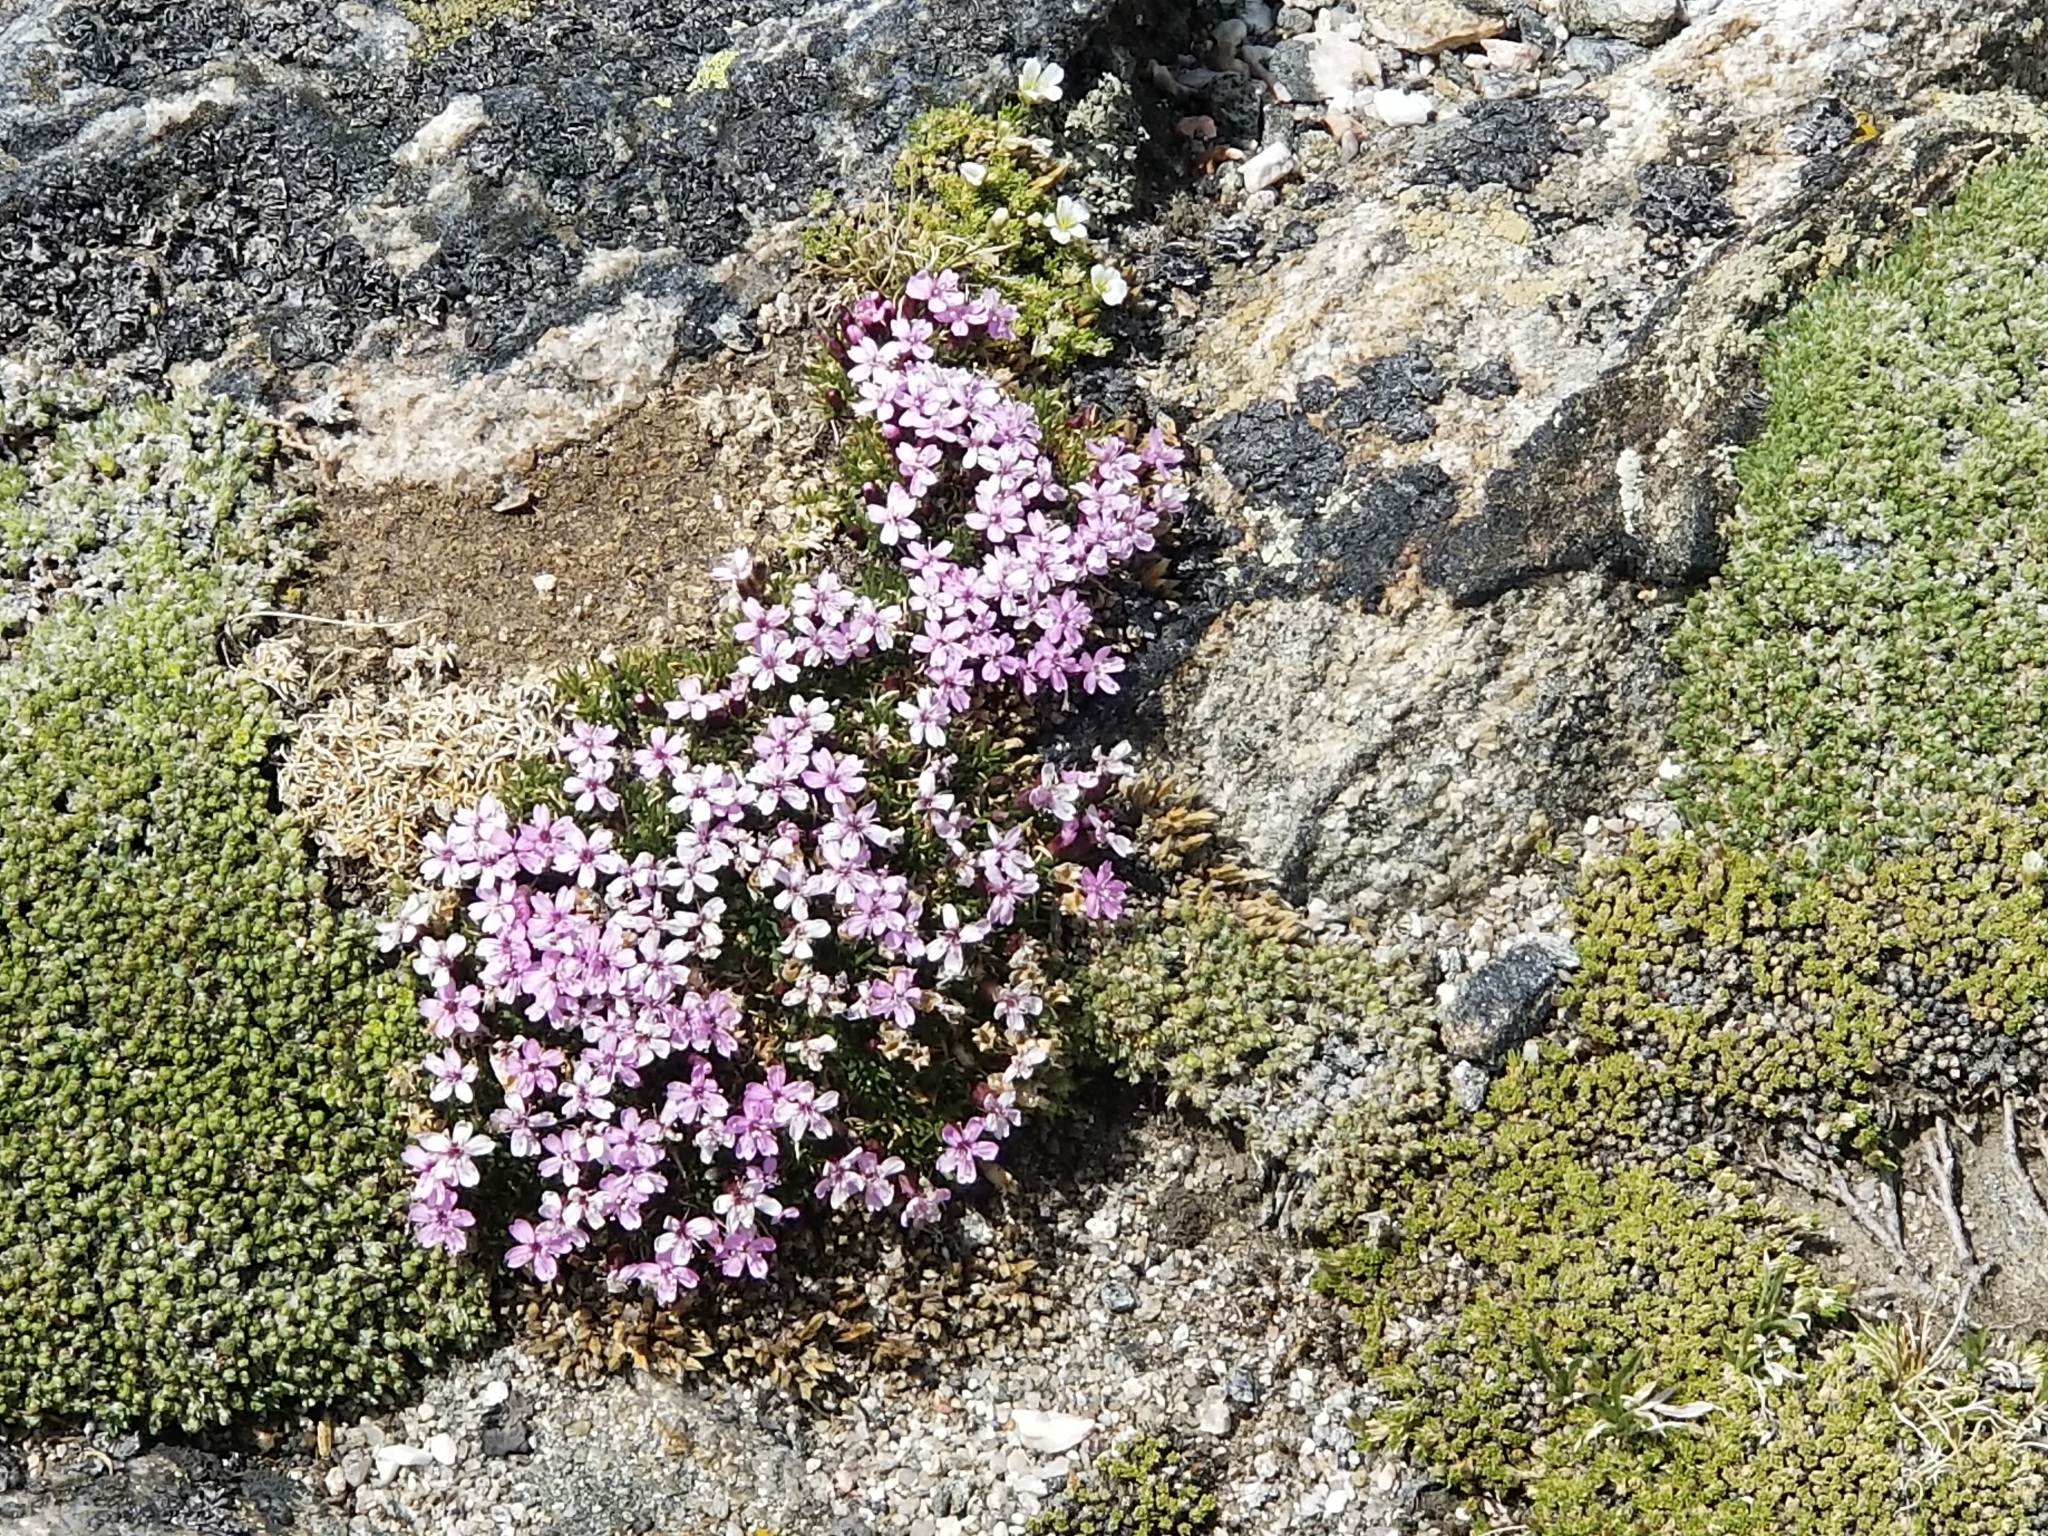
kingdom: Plantae
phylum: Tracheophyta
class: Magnoliopsida
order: Caryophyllales
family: Caryophyllaceae
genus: Silene
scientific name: Silene acaulis
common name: Moss campion
